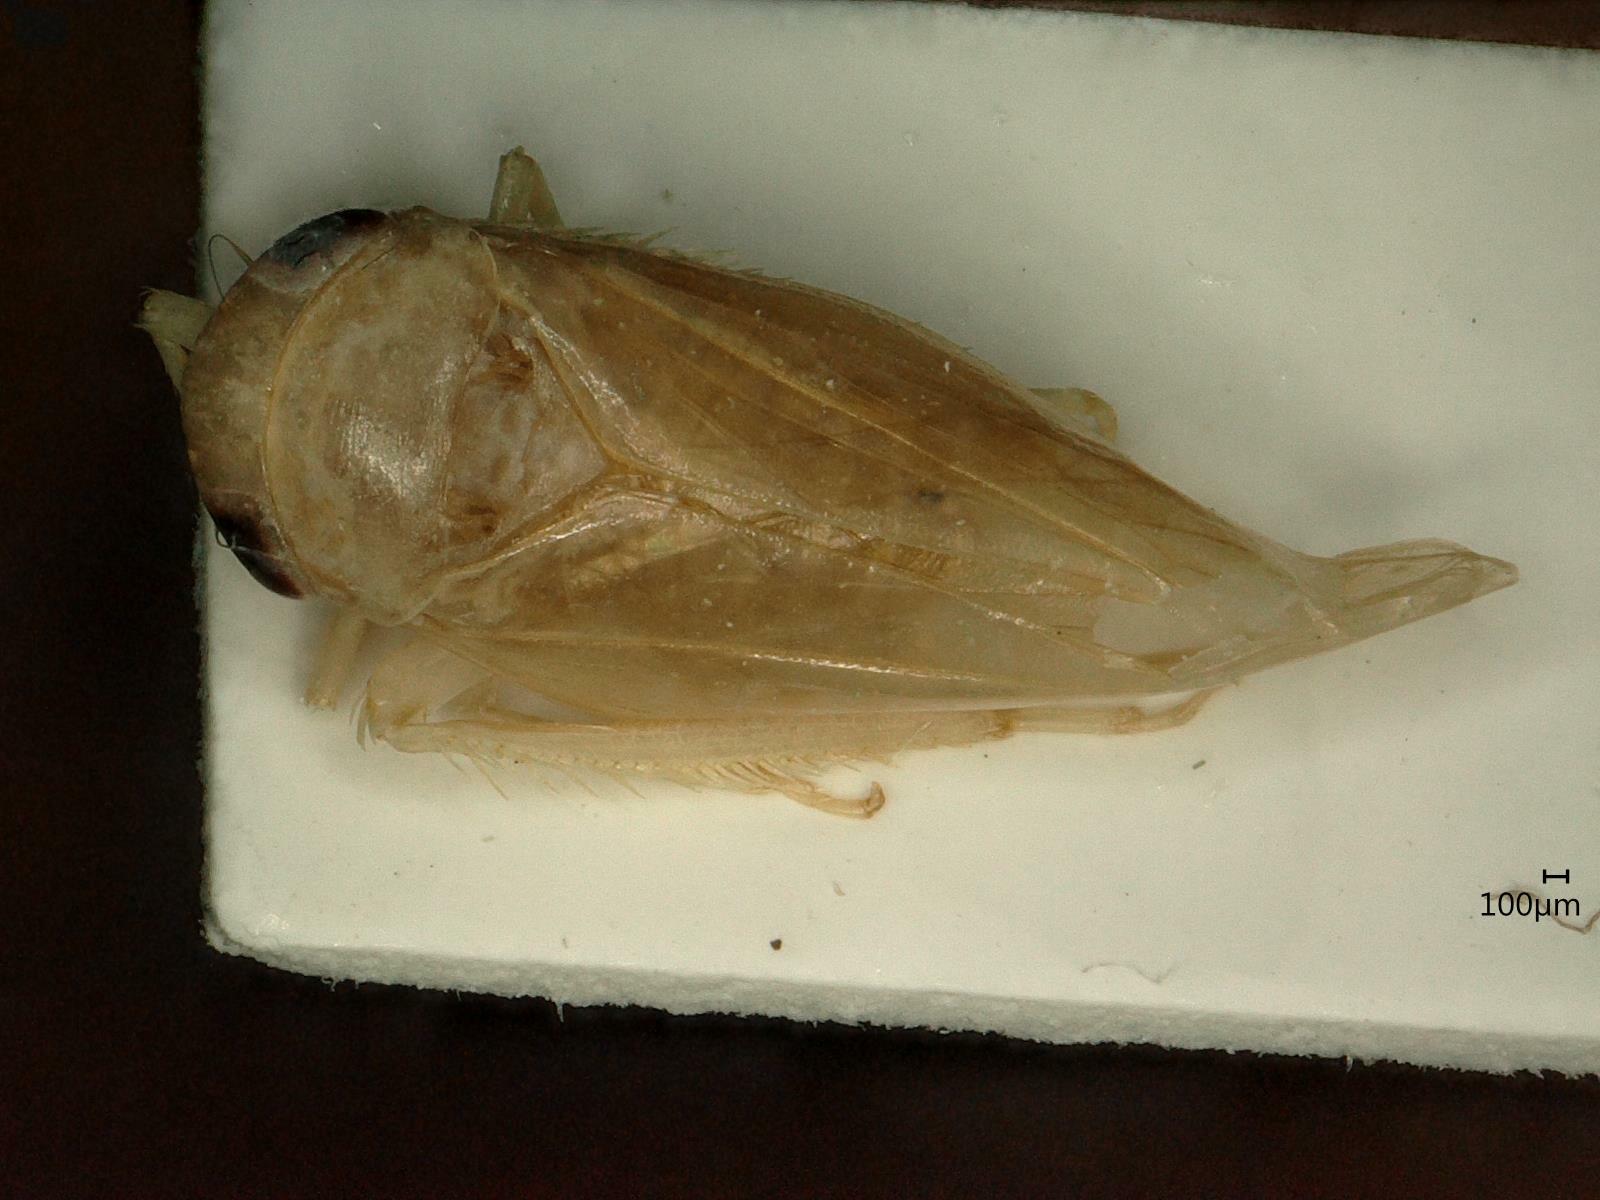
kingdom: Animalia
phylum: Arthropoda
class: Insecta
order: Hemiptera
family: Cicadellidae
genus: Allygus
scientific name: Allygus modestus
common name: Leafhopper
